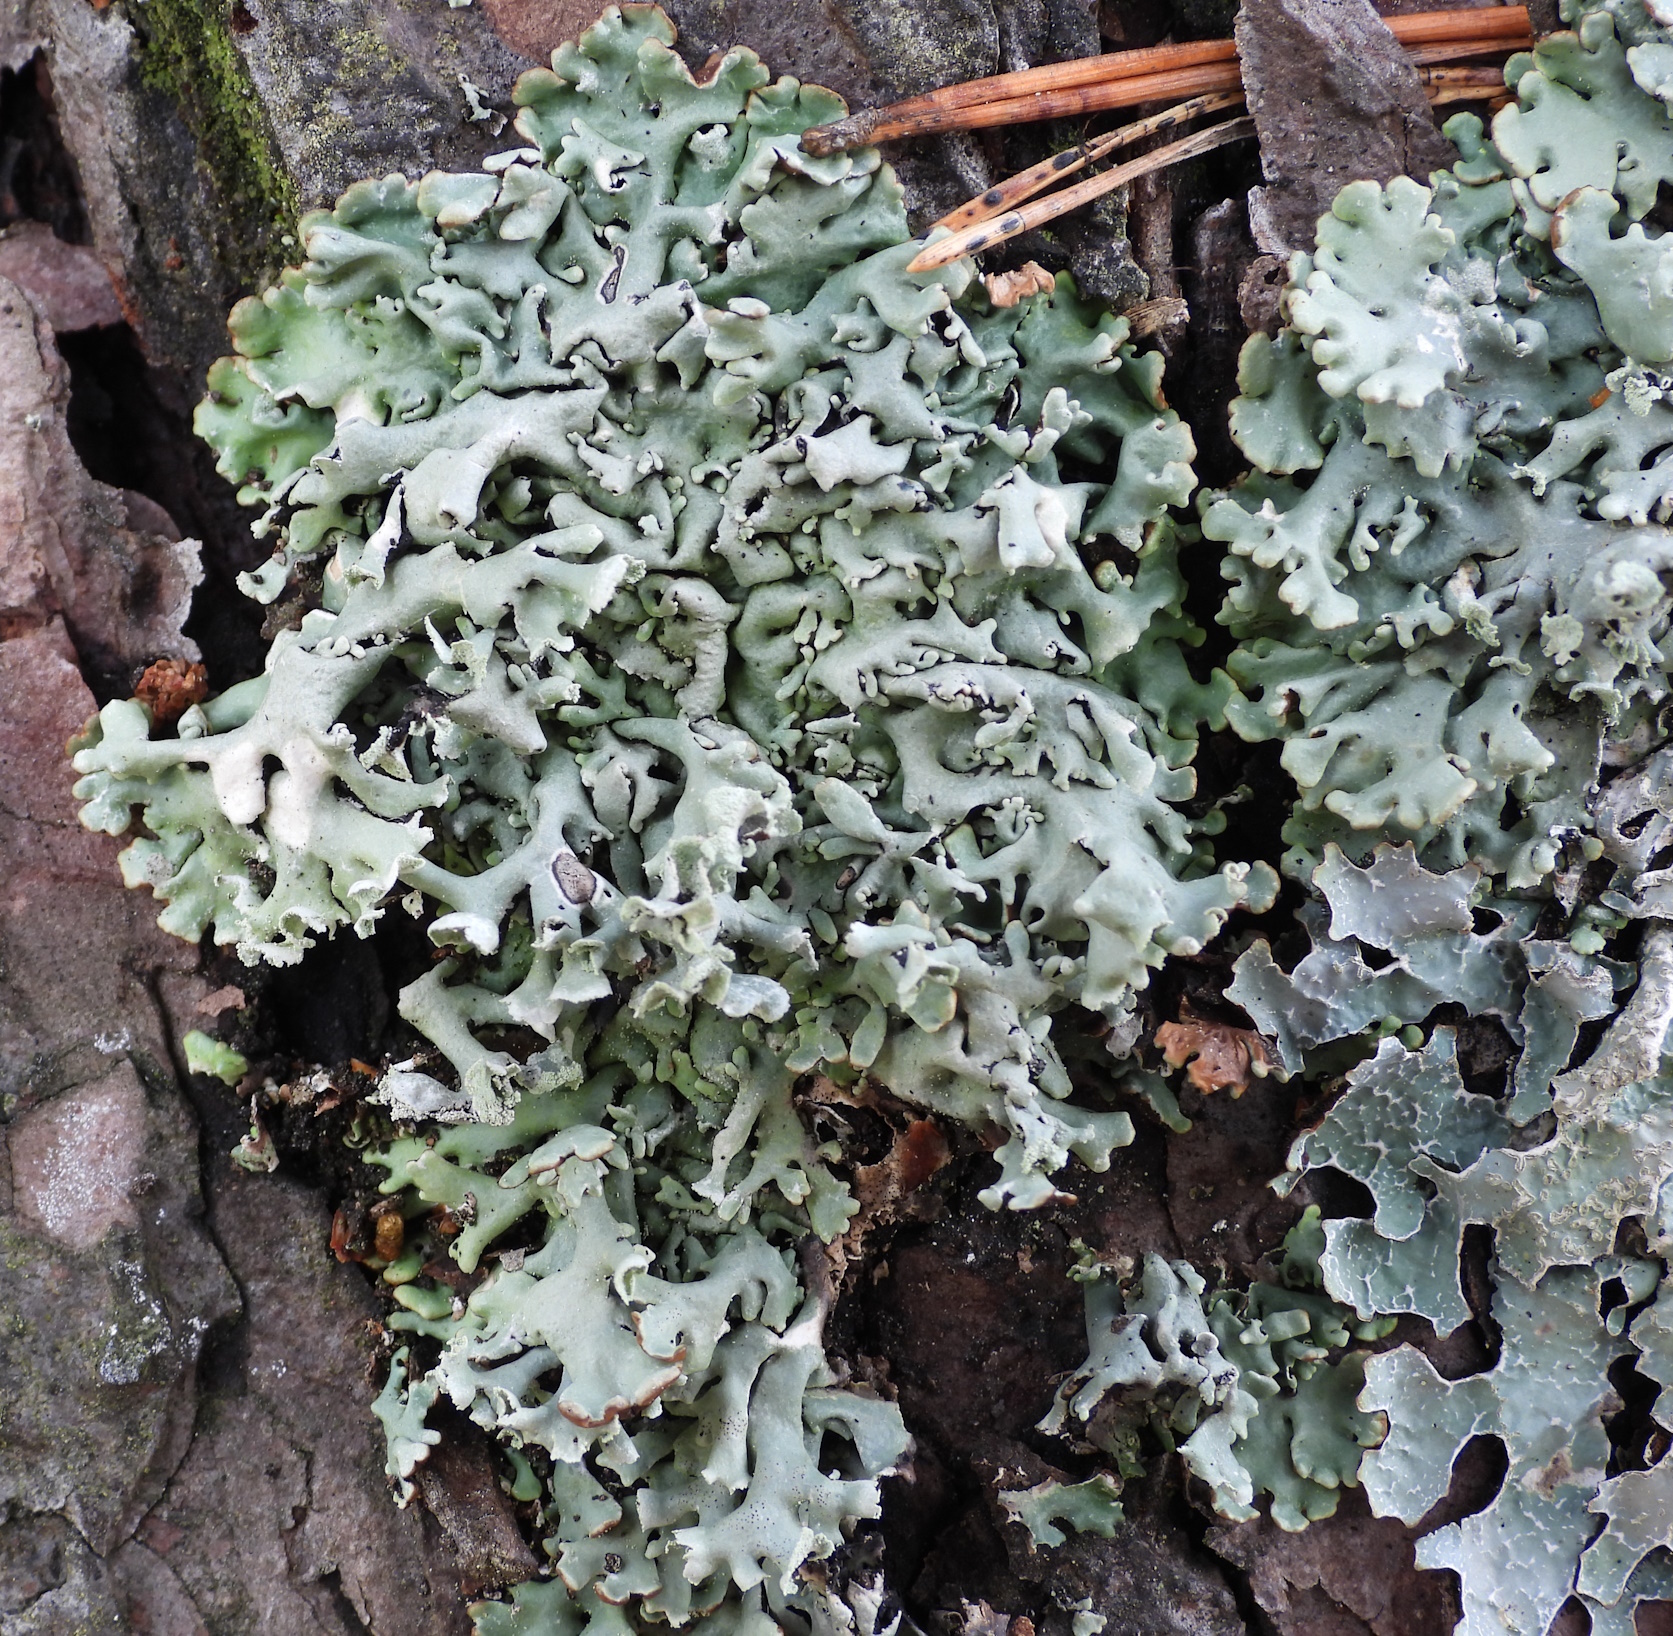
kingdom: Fungi
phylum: Ascomycota
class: Lecanoromycetes
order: Lecanorales
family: Parmeliaceae
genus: Hypogymnia
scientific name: Hypogymnia physodes
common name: Dark crottle
